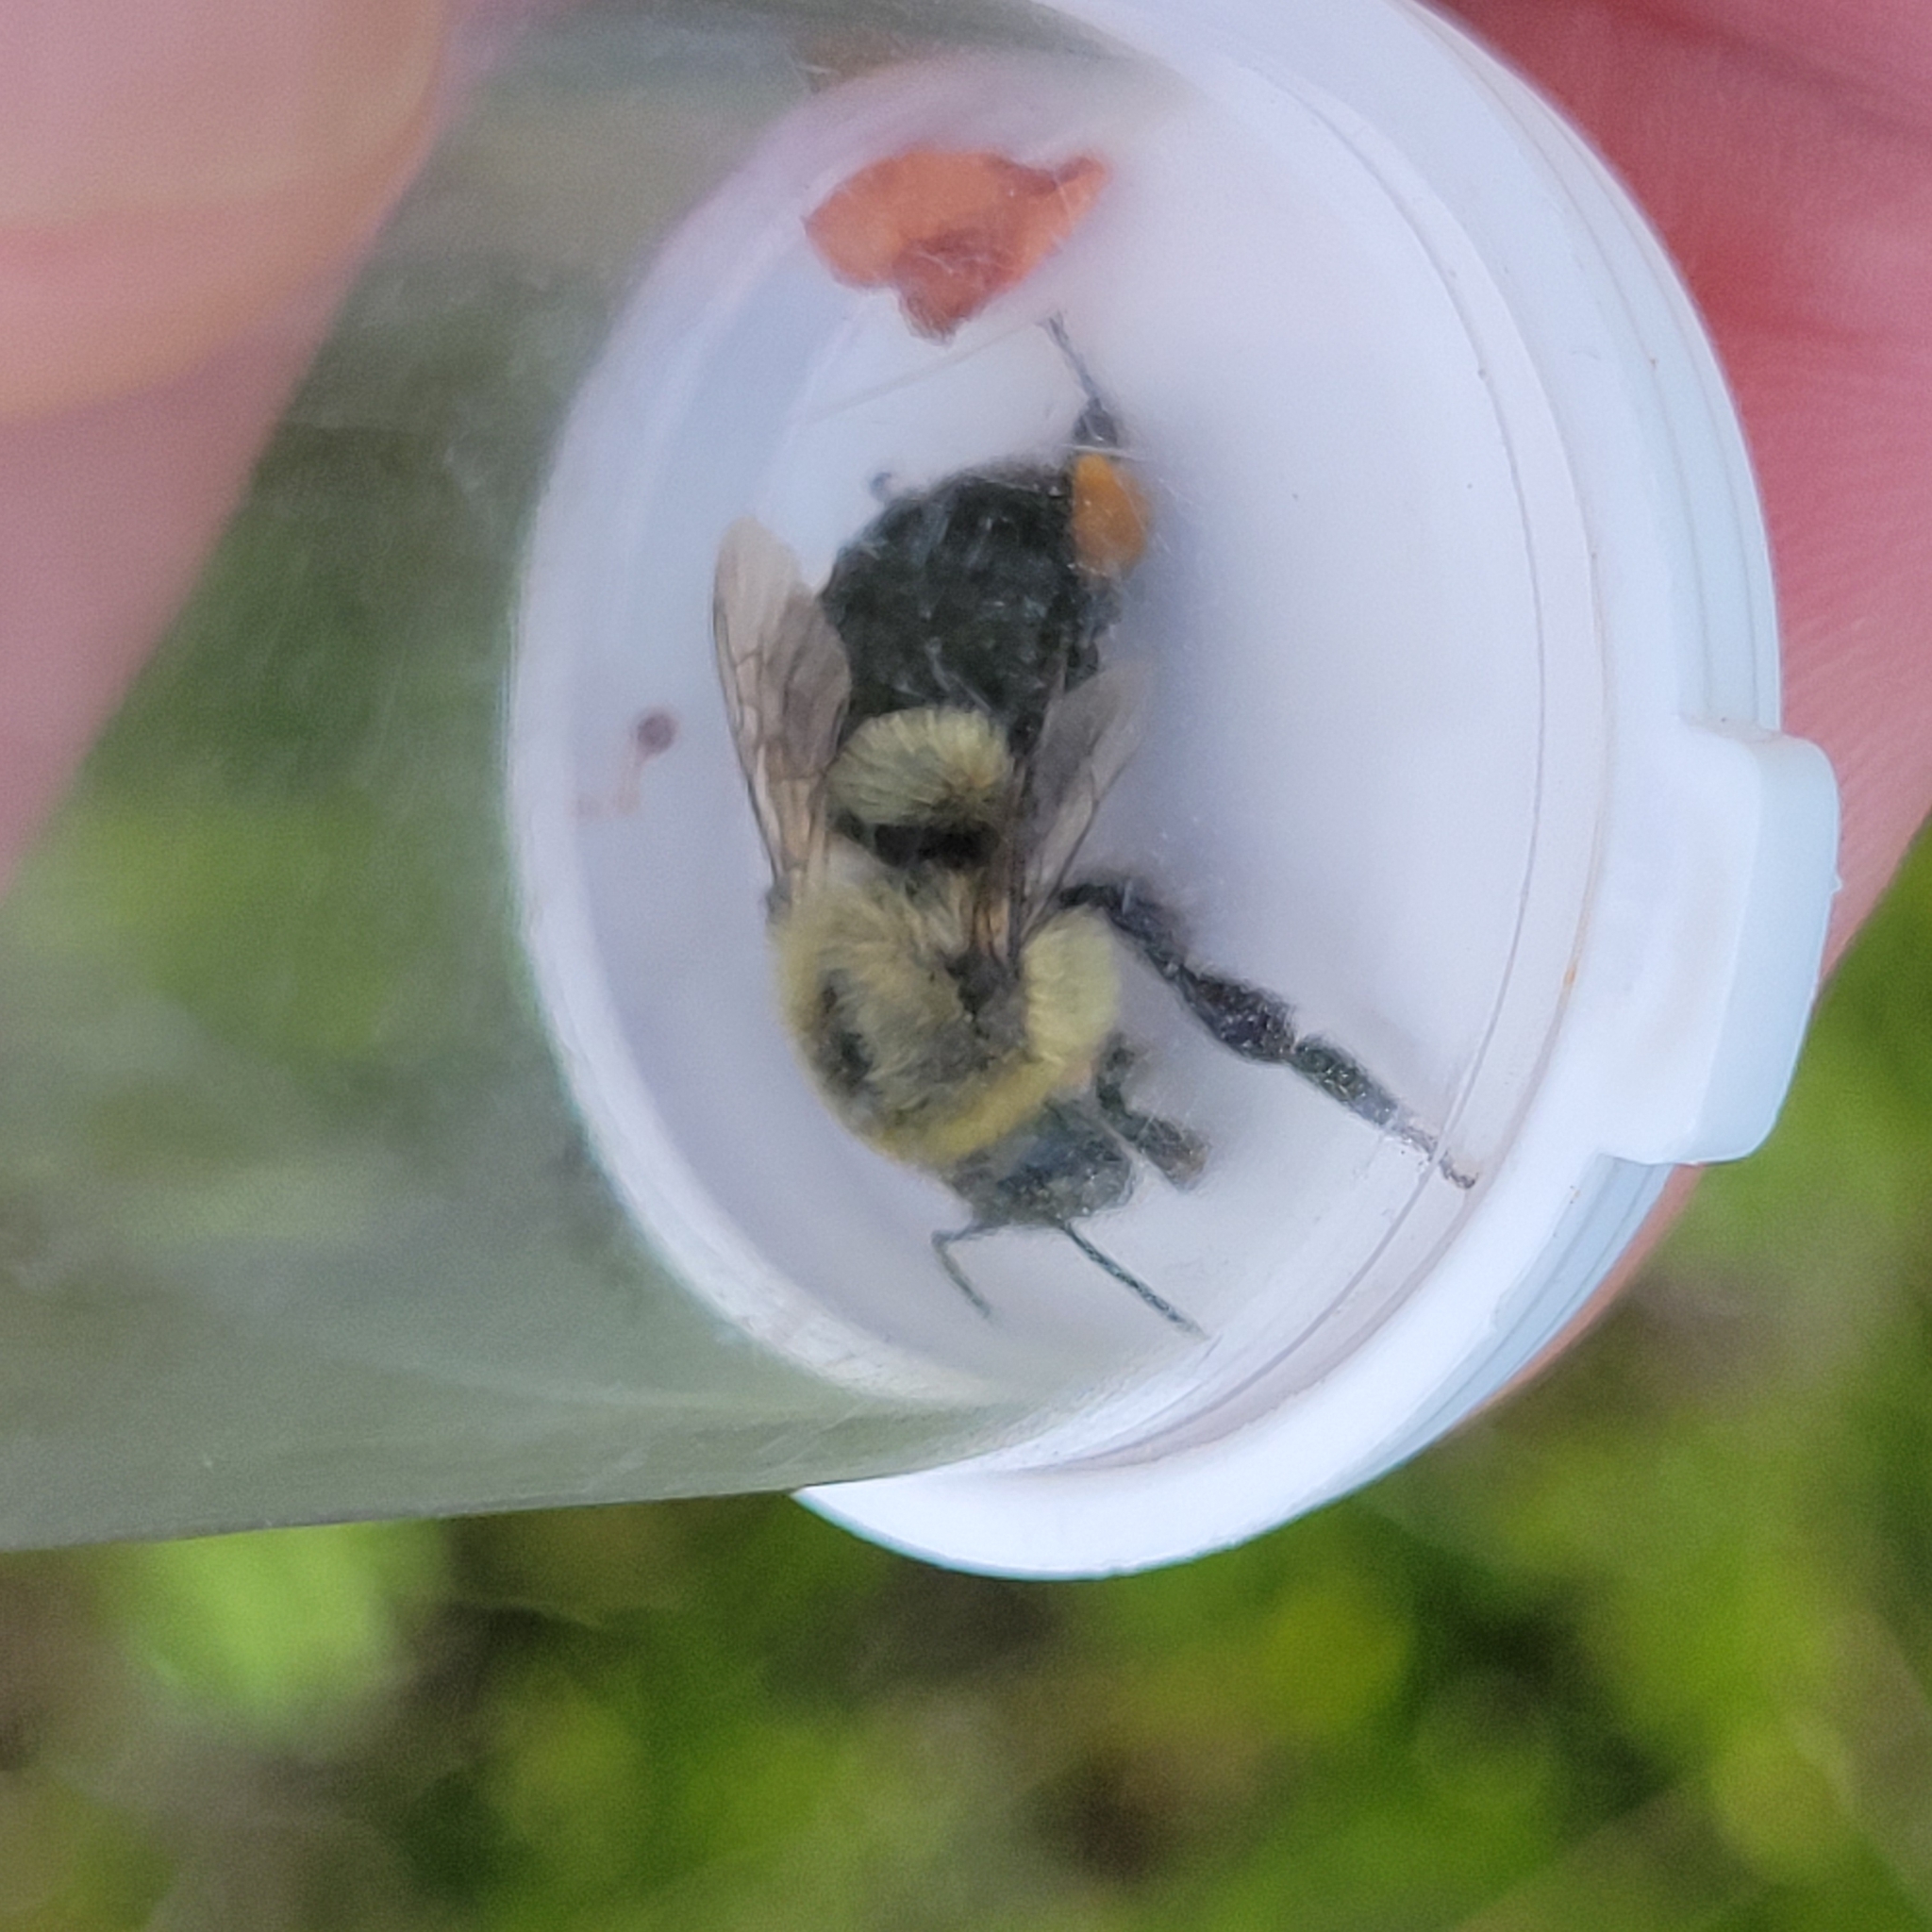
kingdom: Animalia
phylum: Arthropoda
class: Insecta
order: Hymenoptera
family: Apidae
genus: Bombus
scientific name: Bombus impatiens
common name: Common eastern bumble bee
